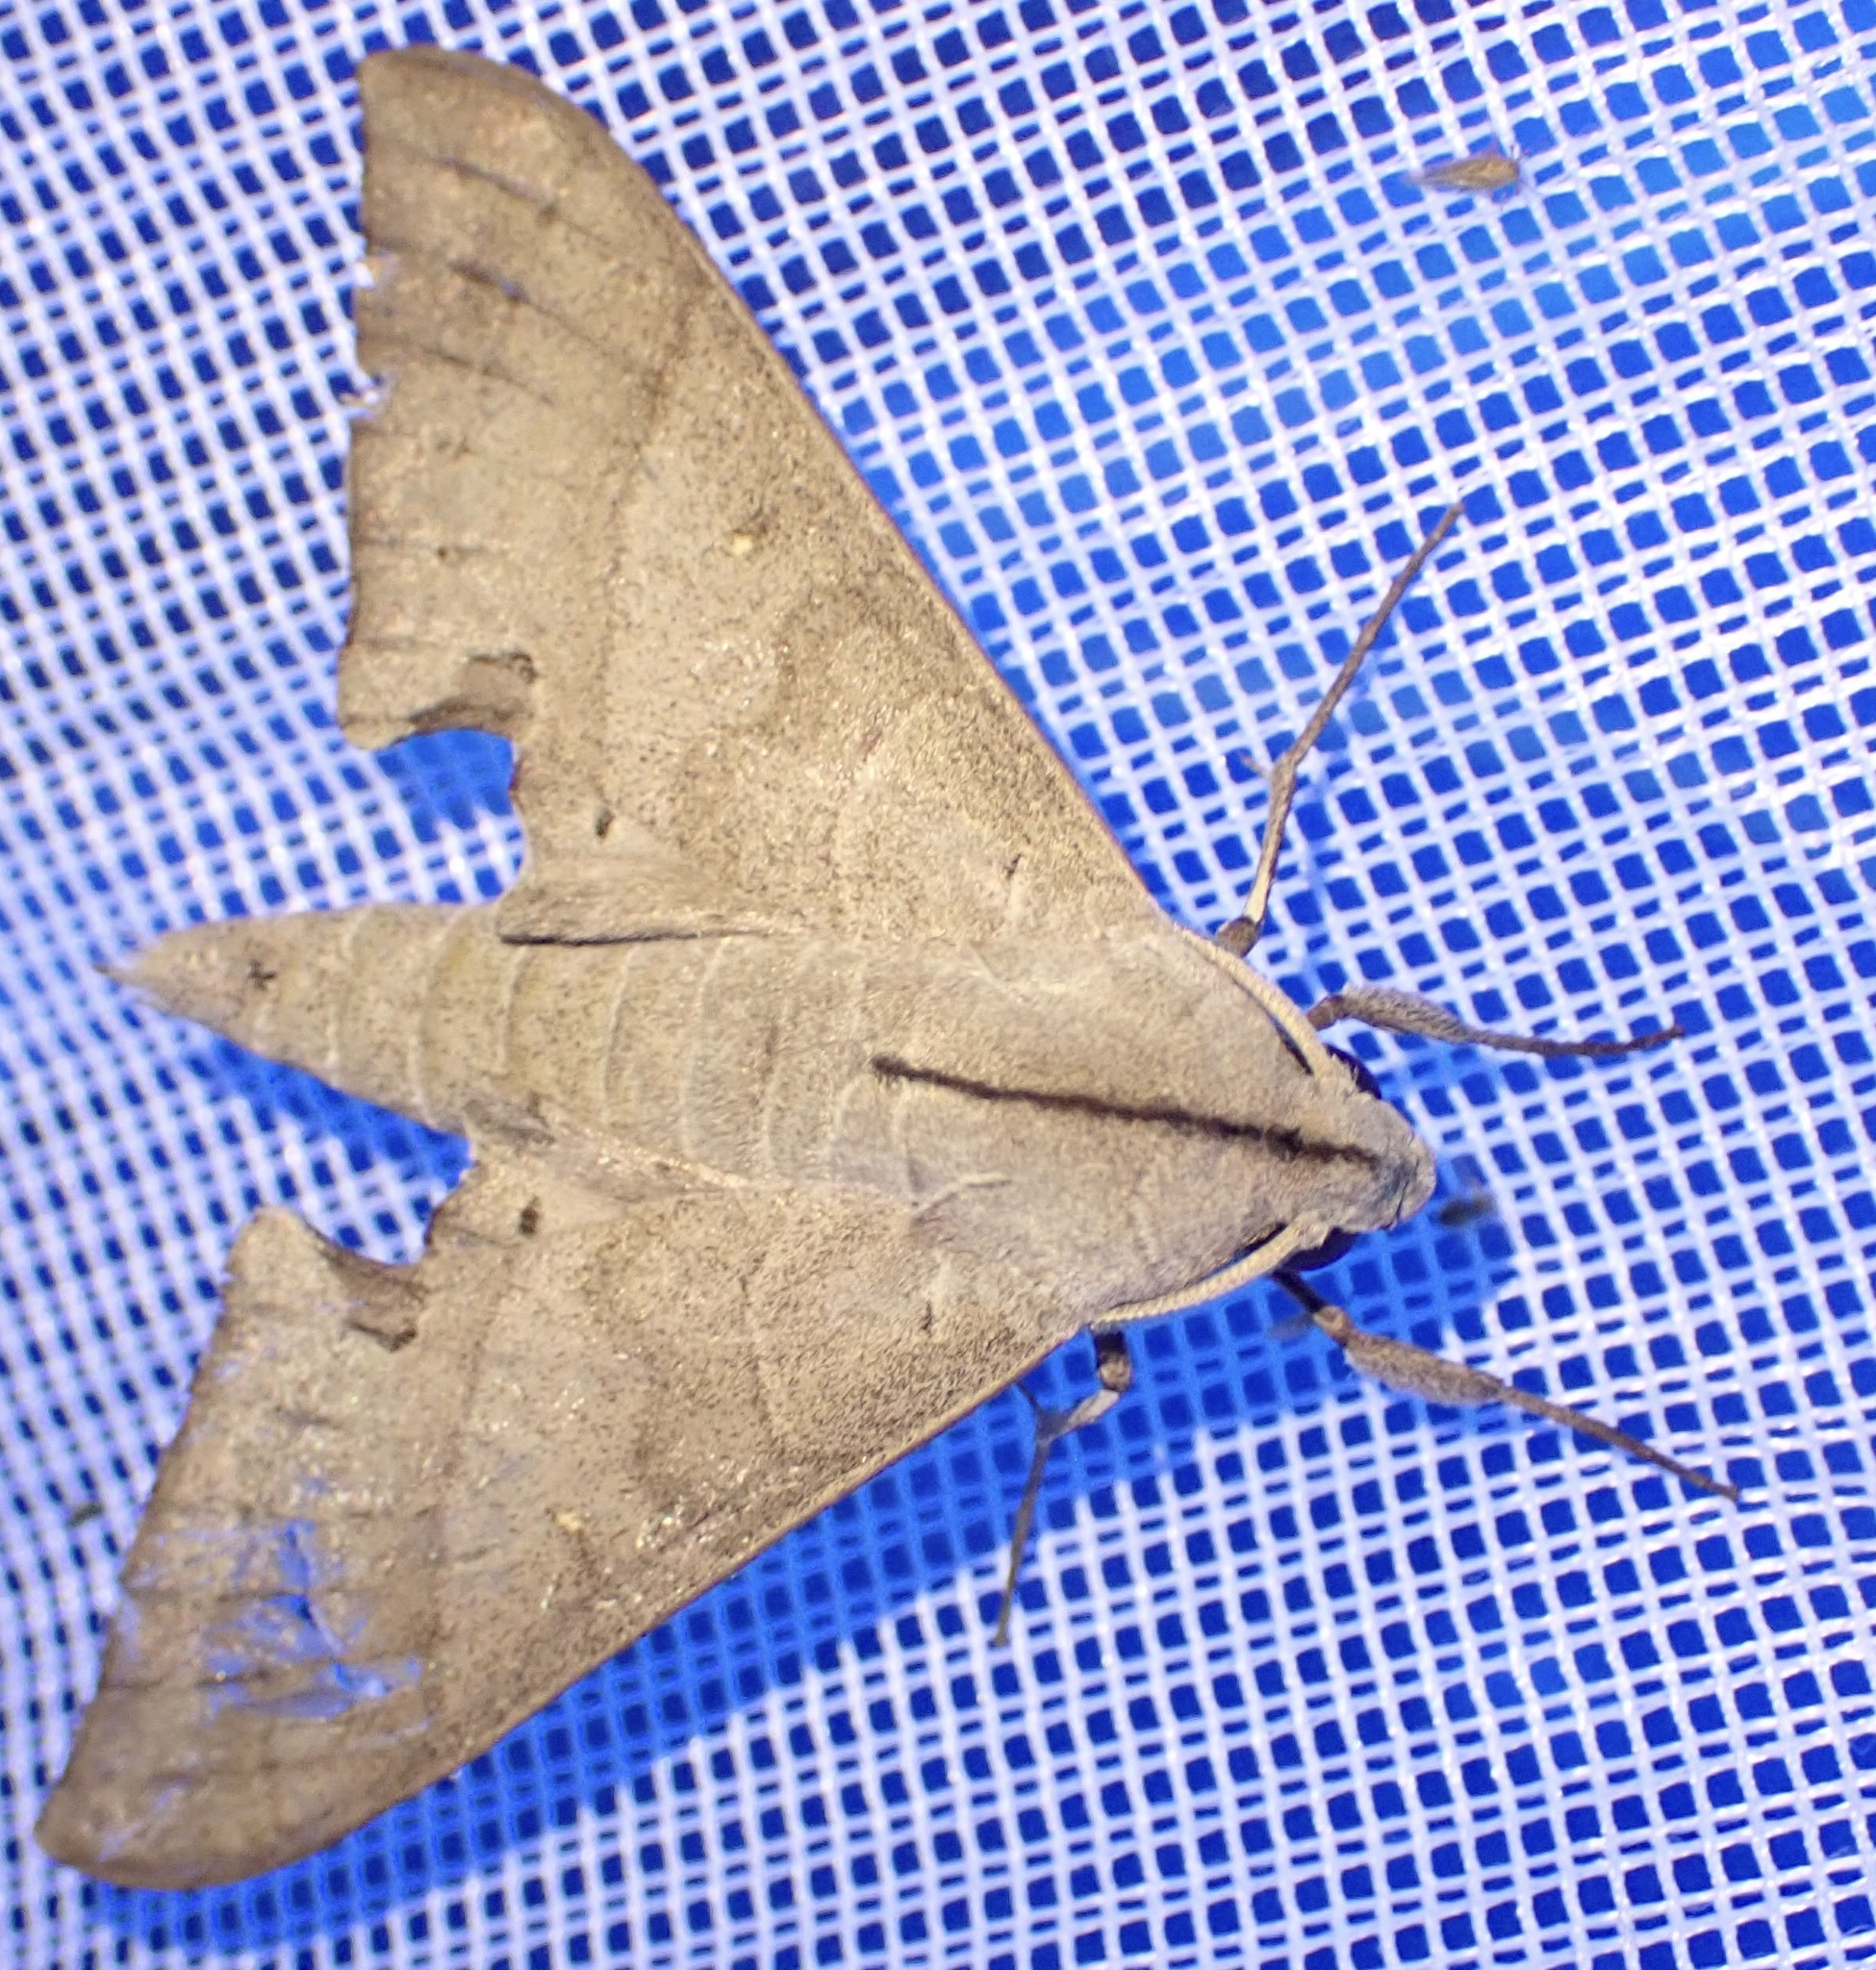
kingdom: Animalia
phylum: Arthropoda
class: Insecta
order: Lepidoptera
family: Sphingidae
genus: Polyptychus
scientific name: Polyptychus carteri
